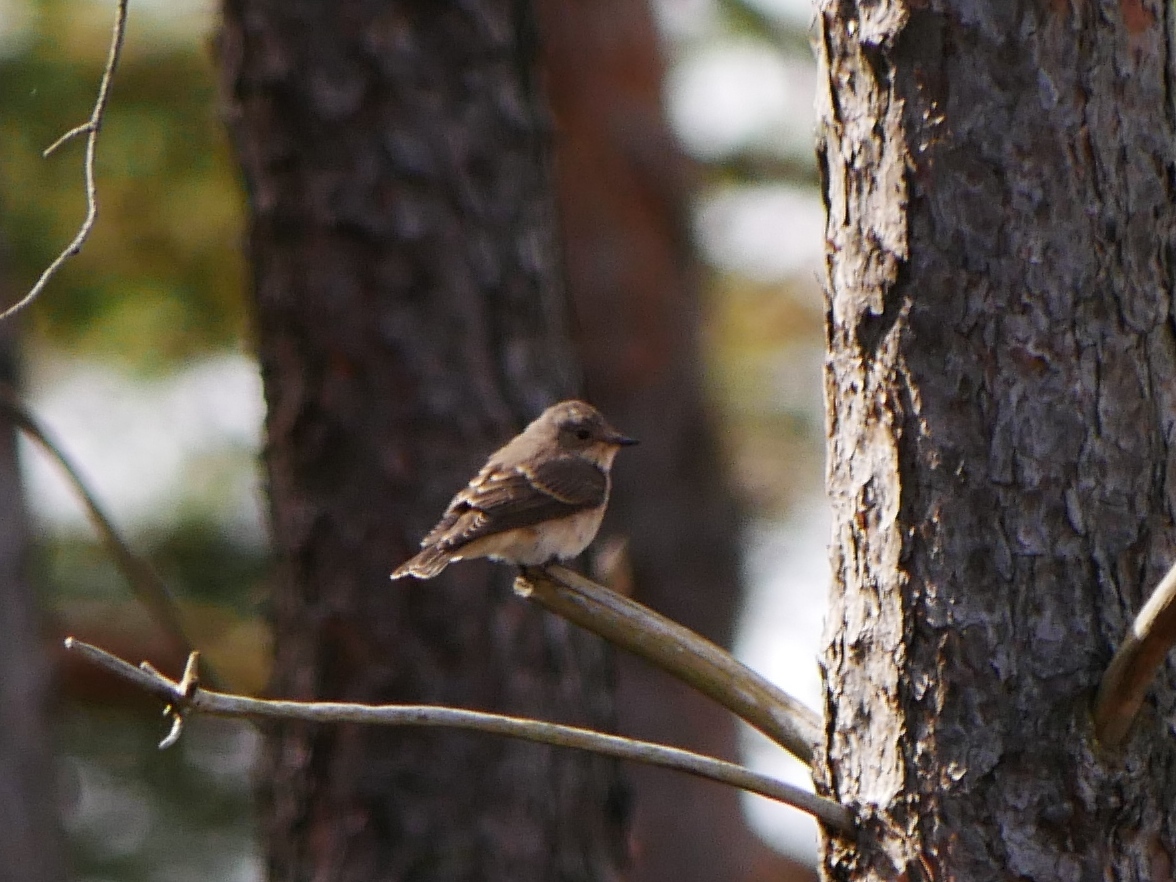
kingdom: Animalia
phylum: Chordata
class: Aves
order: Passeriformes
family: Muscicapidae
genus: Muscicapa
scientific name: Muscicapa striata
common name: Spotted flycatcher
